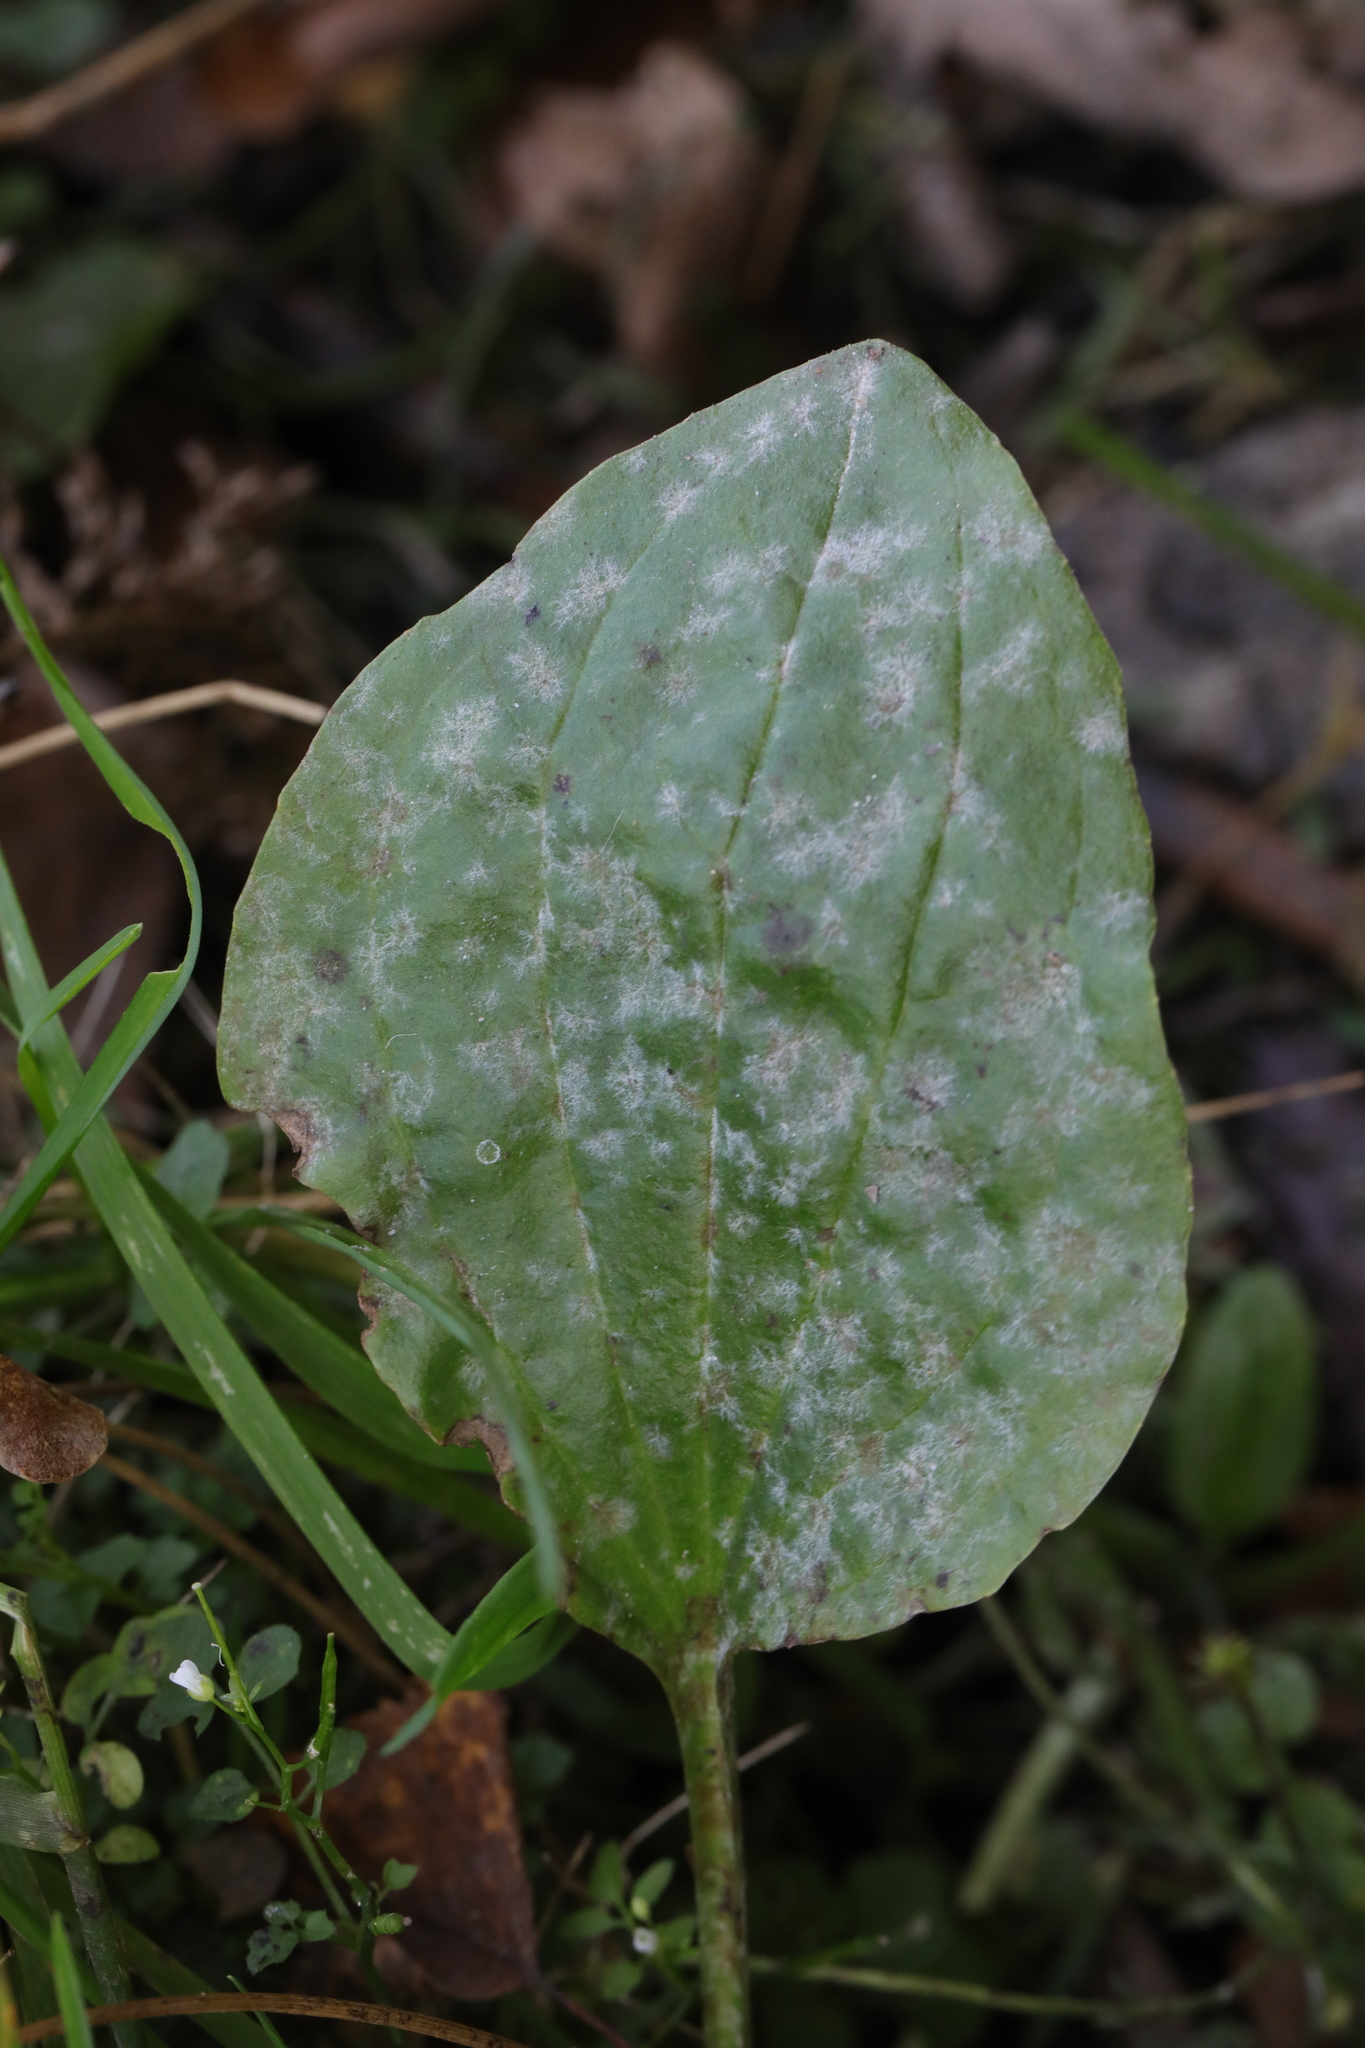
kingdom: Plantae
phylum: Tracheophyta
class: Magnoliopsida
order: Lamiales
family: Plantaginaceae
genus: Plantago
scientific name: Plantago major
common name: Common plantain
